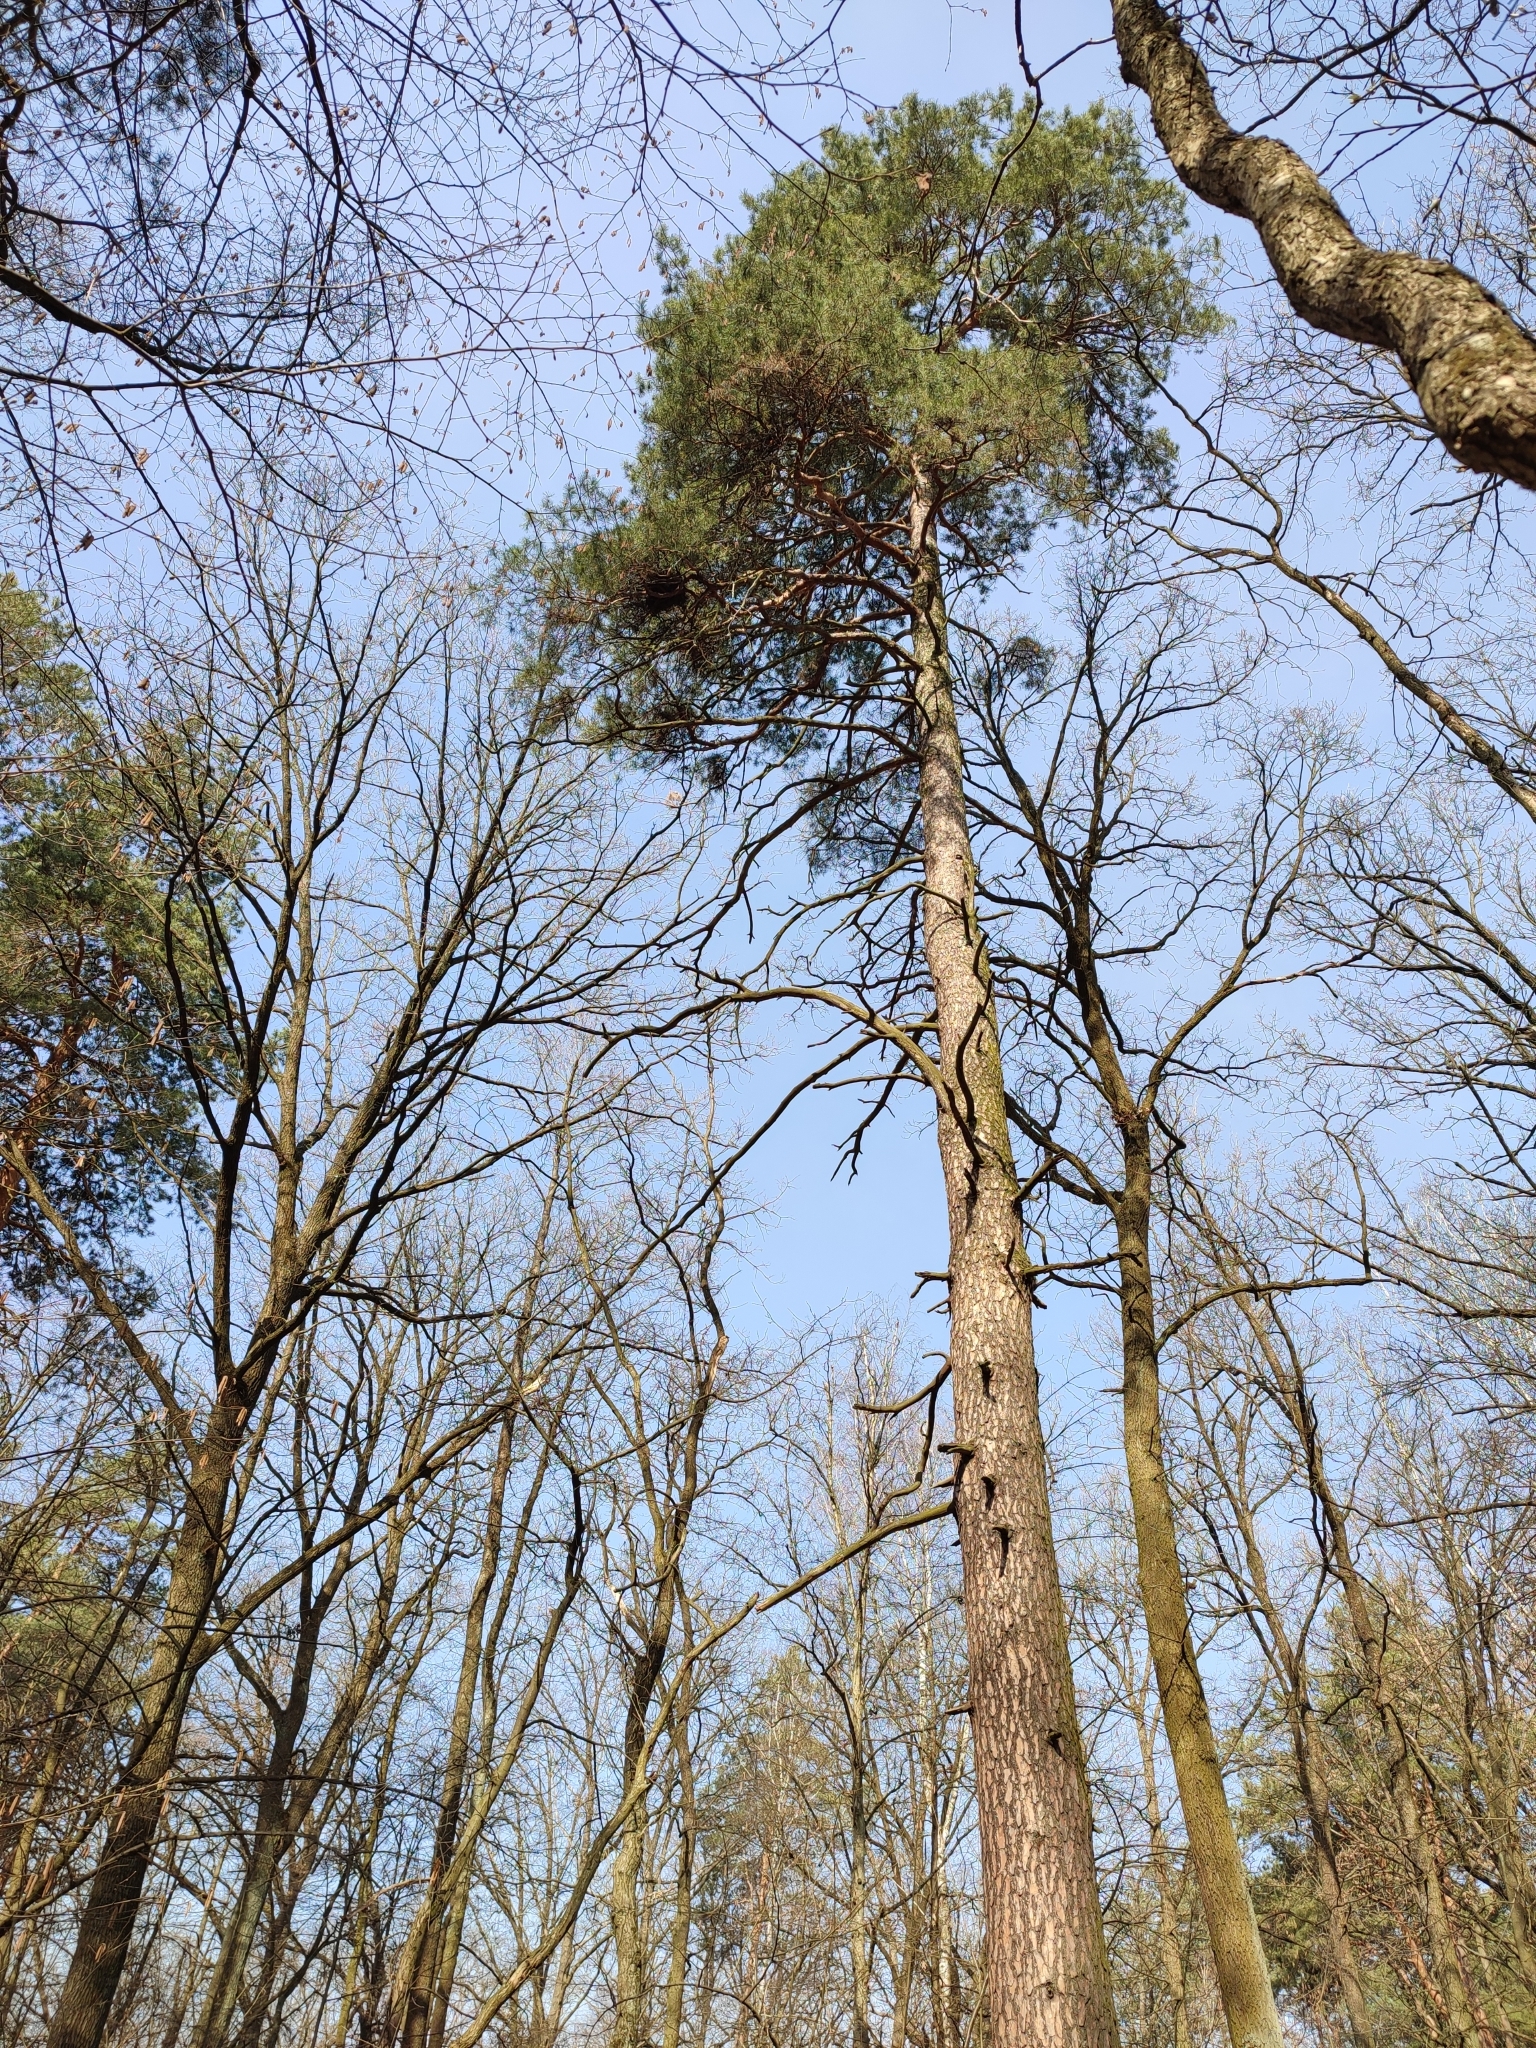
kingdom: Plantae
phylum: Tracheophyta
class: Pinopsida
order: Pinales
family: Pinaceae
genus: Pinus
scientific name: Pinus sylvestris
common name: Scots pine
